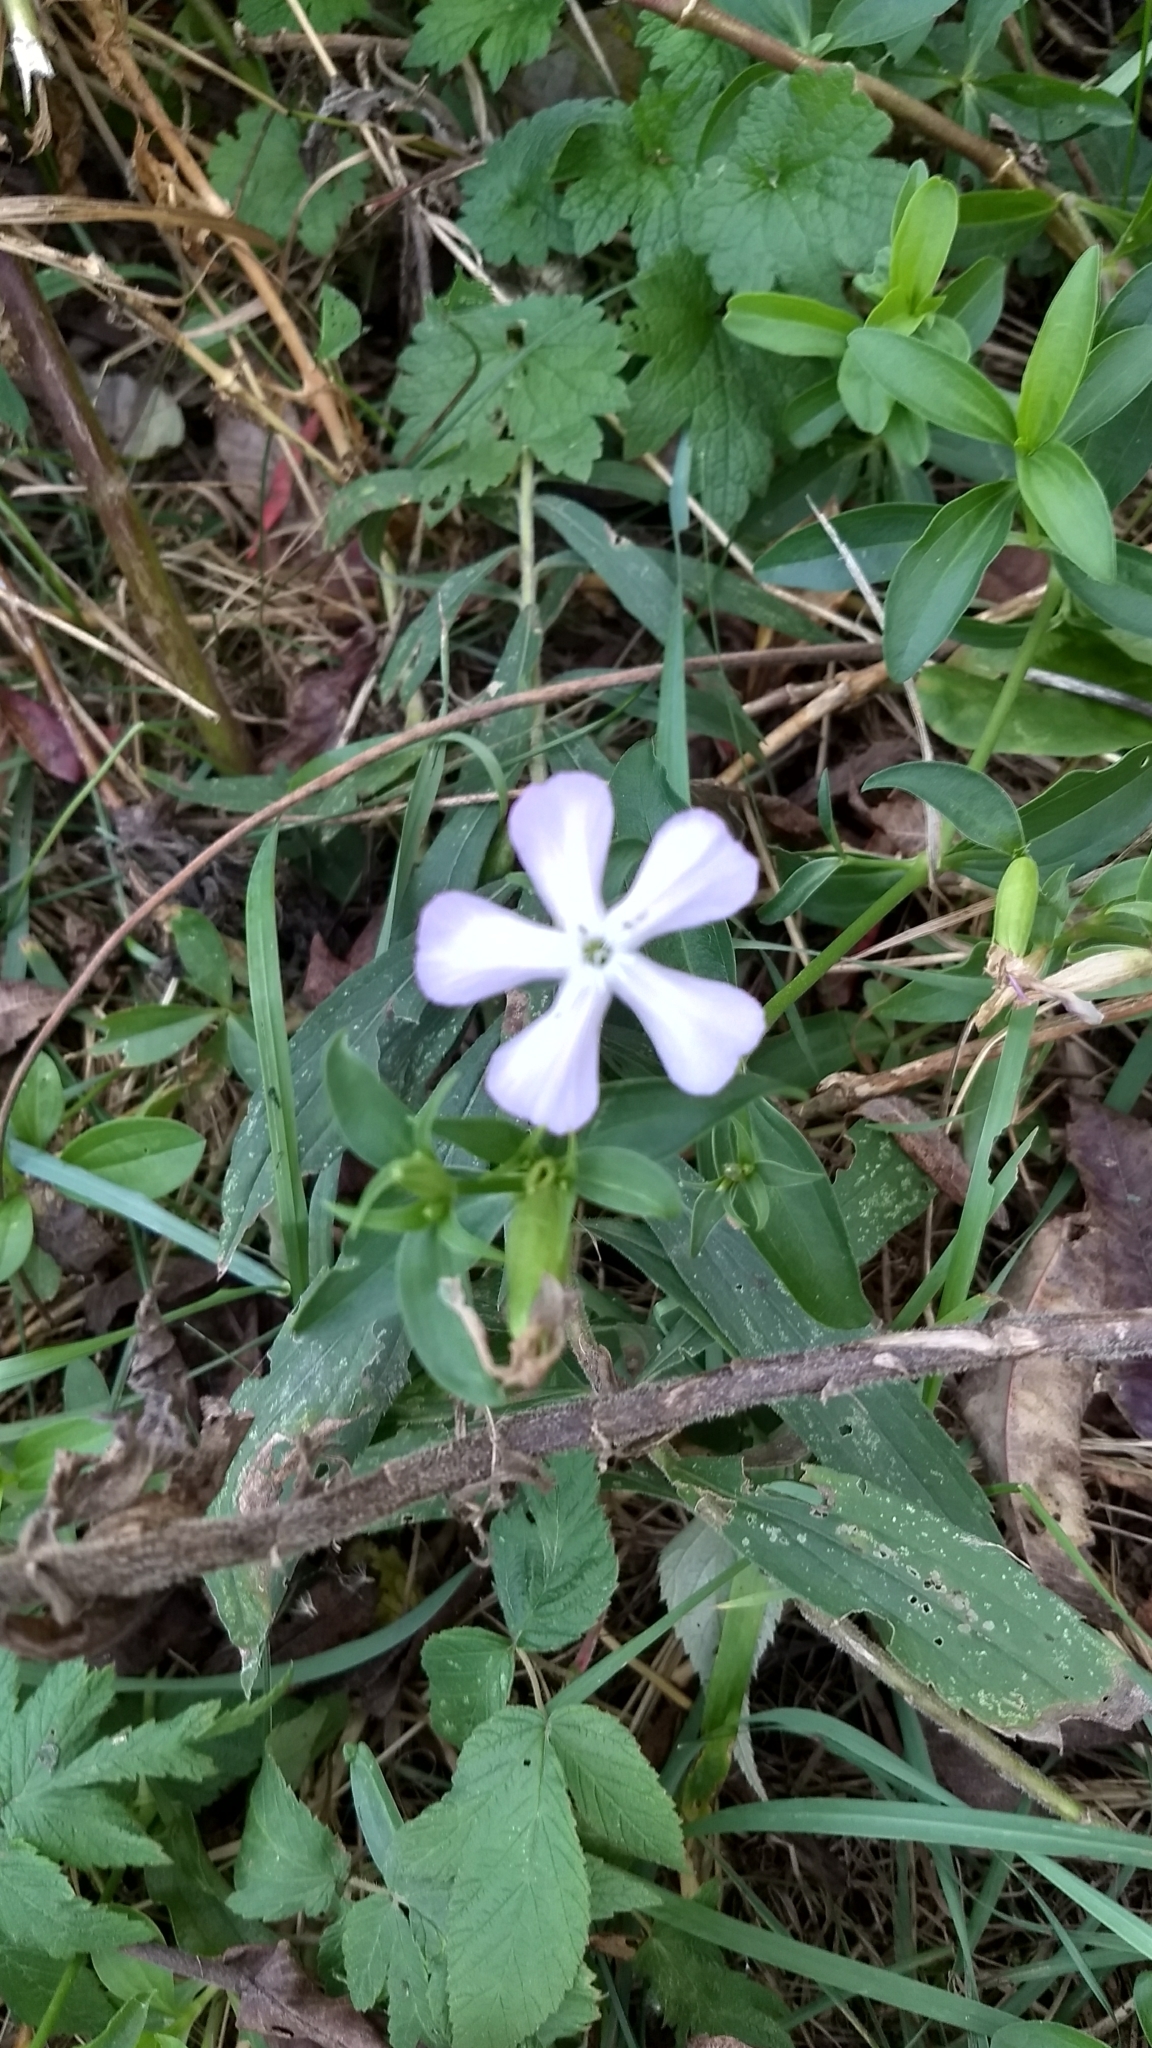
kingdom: Plantae
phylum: Tracheophyta
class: Magnoliopsida
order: Caryophyllales
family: Caryophyllaceae
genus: Saponaria
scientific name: Saponaria officinalis
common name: Soapwort
